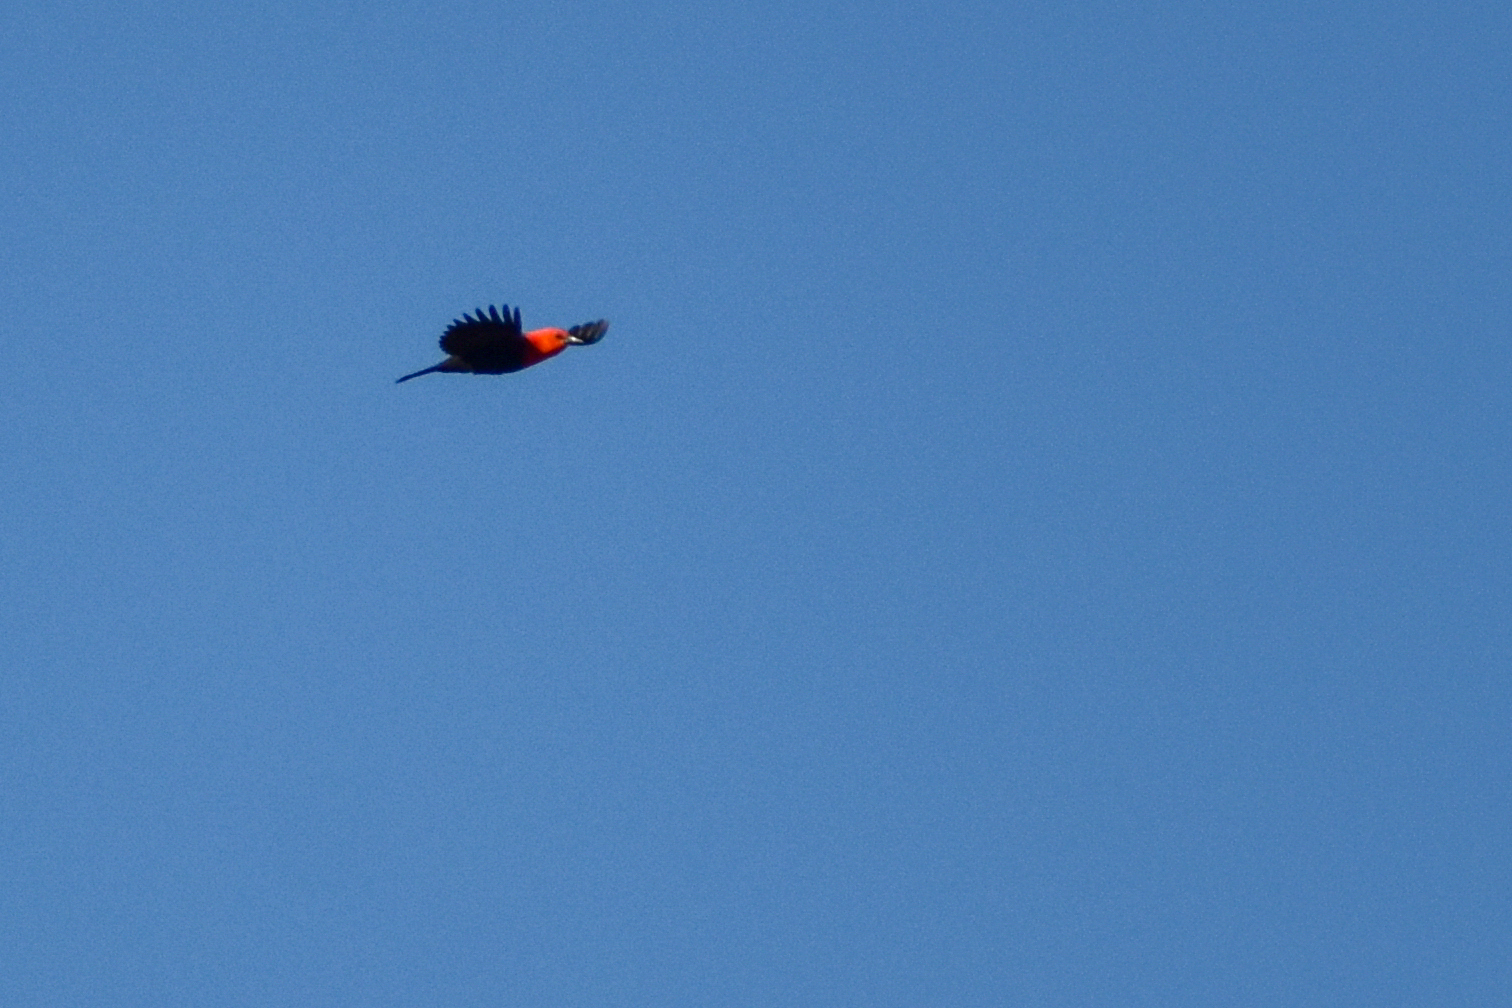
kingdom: Animalia
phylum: Chordata
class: Aves
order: Passeriformes
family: Icteridae
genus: Amblyramphus
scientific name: Amblyramphus holosericeus
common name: Scarlet-headed blackbird
